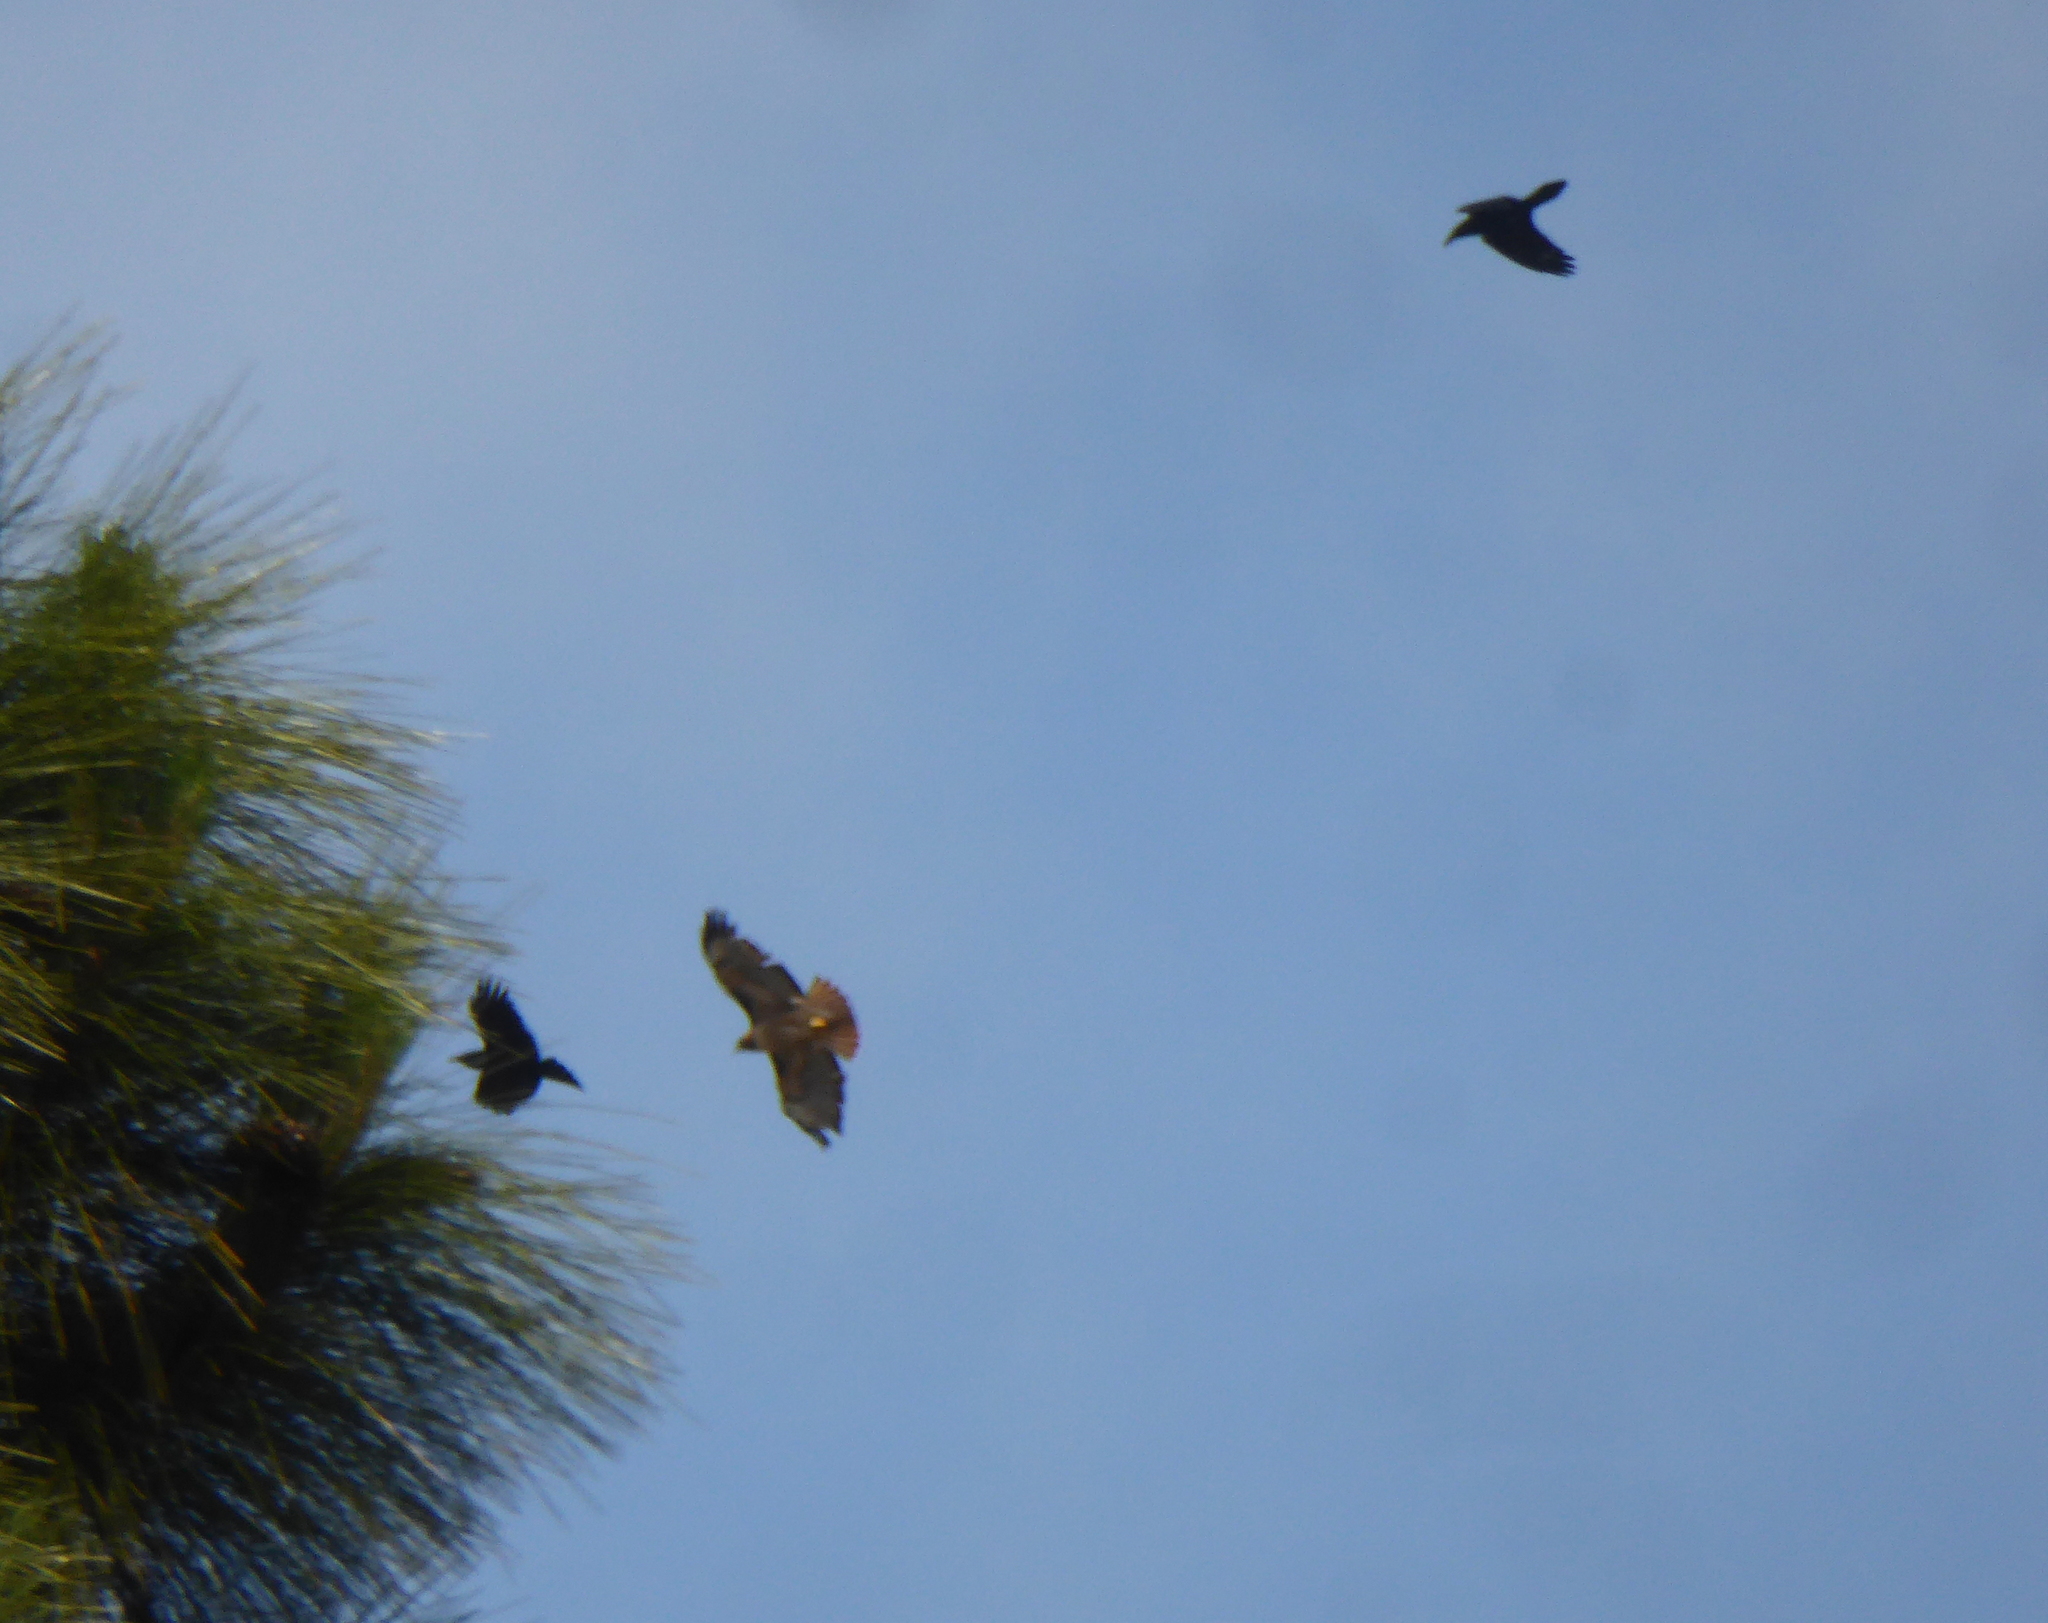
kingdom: Animalia
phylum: Chordata
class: Aves
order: Passeriformes
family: Corvidae
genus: Corvus
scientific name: Corvus corax
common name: Common raven
